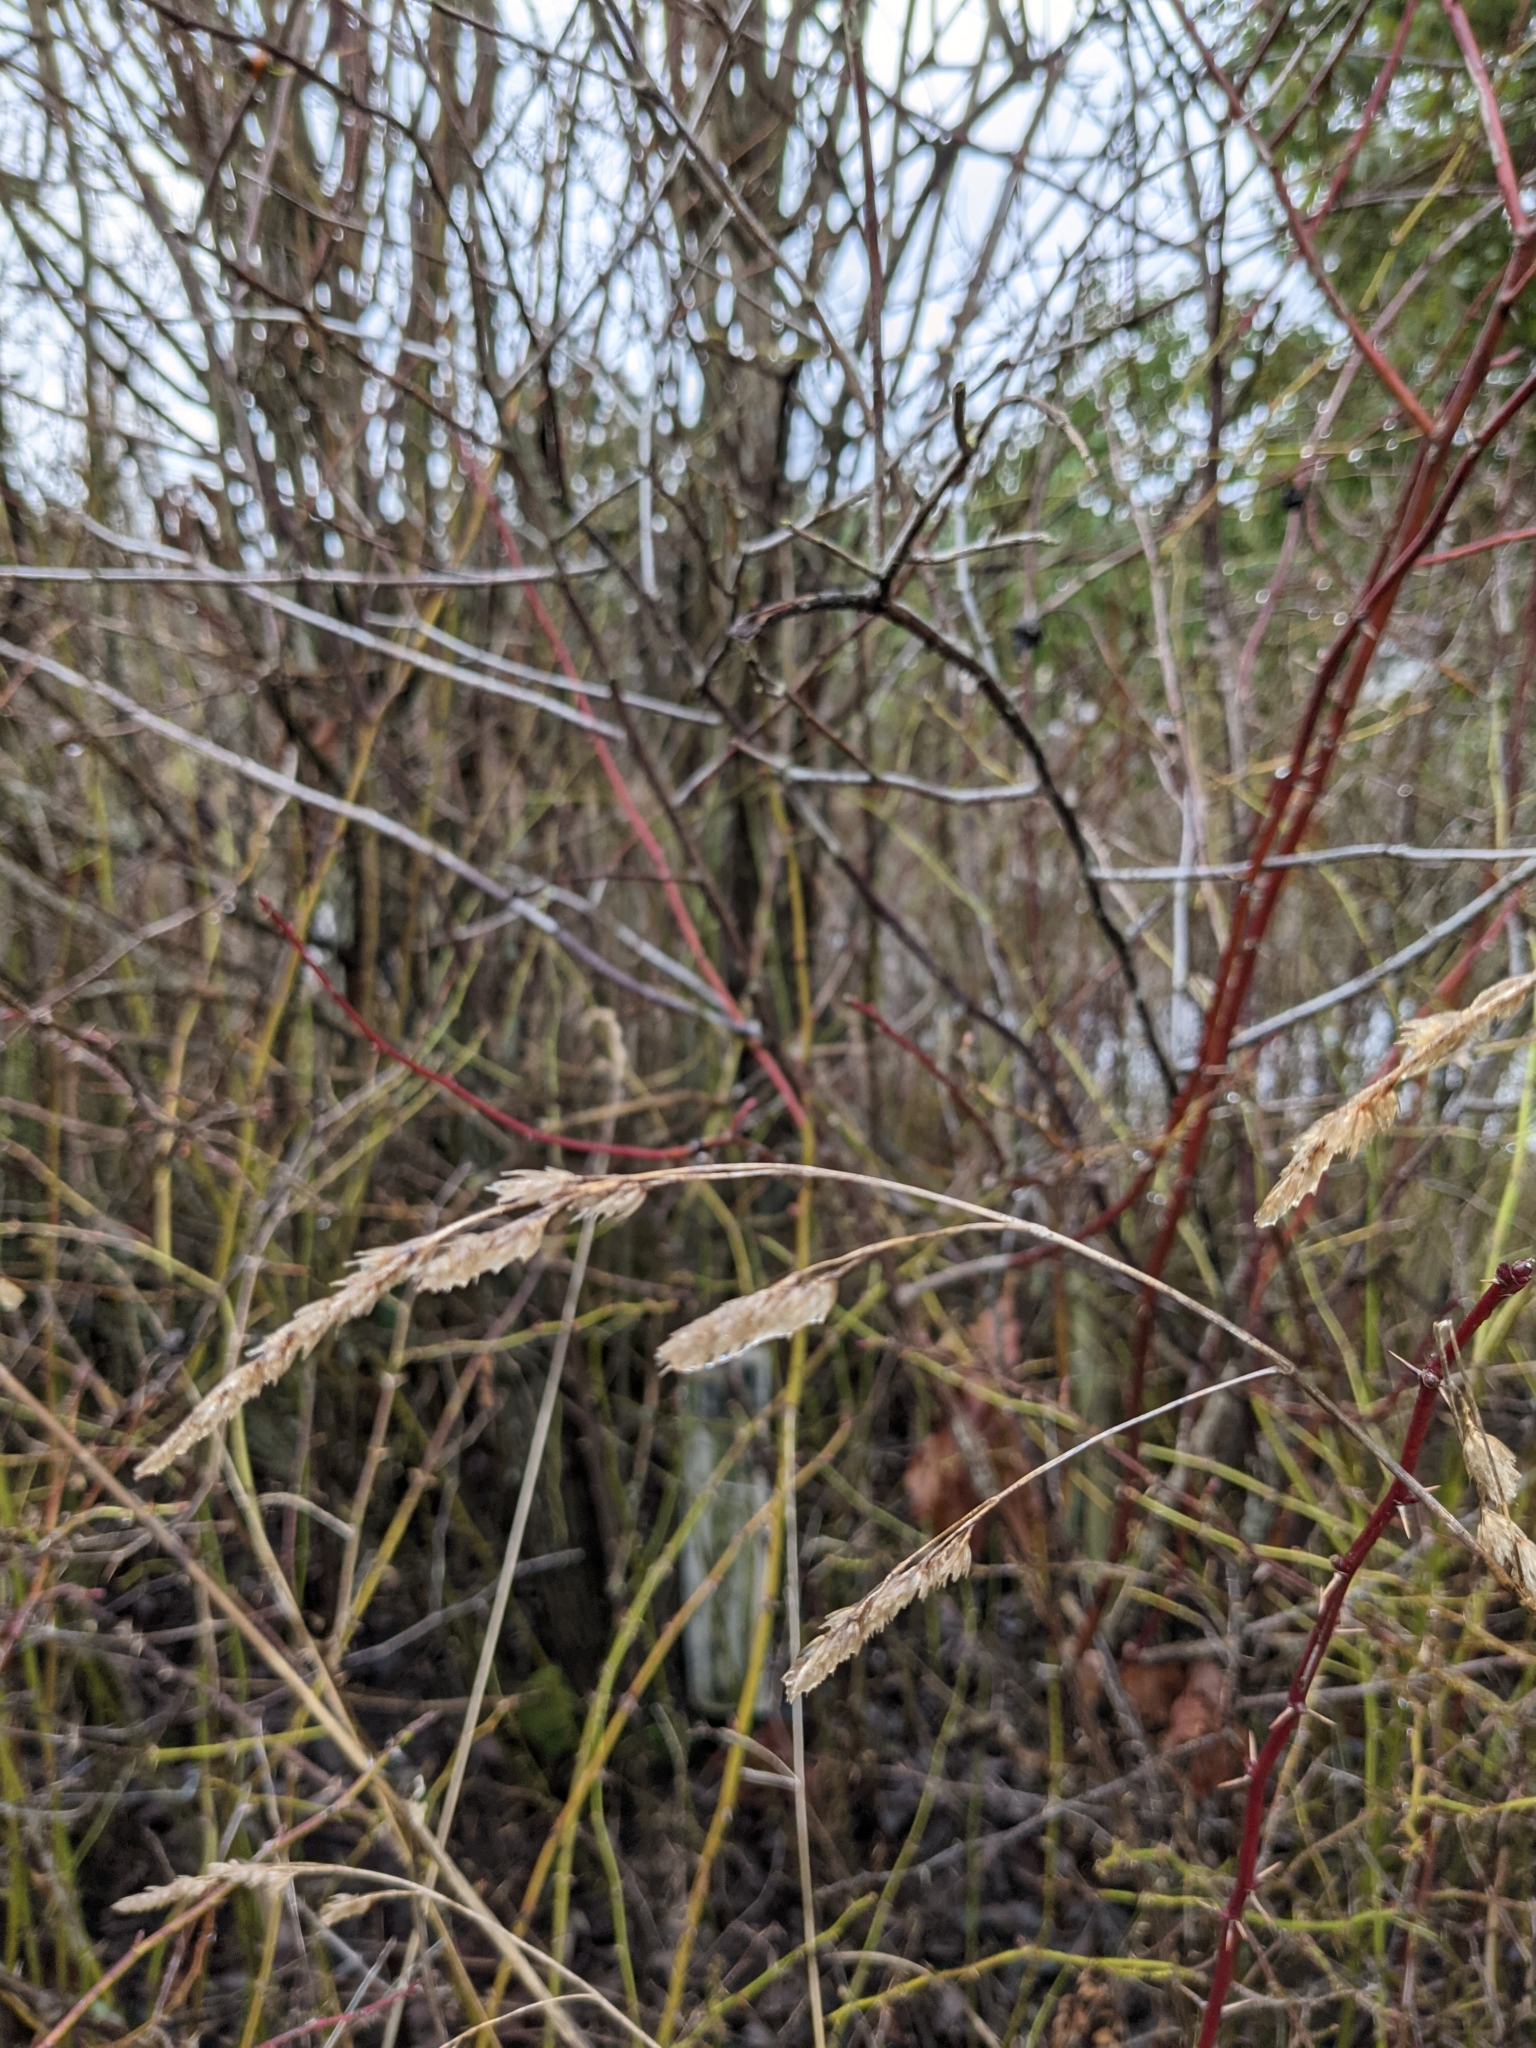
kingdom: Plantae
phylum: Tracheophyta
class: Liliopsida
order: Poales
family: Poaceae
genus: Dactylis
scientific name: Dactylis glomerata
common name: Orchardgrass
